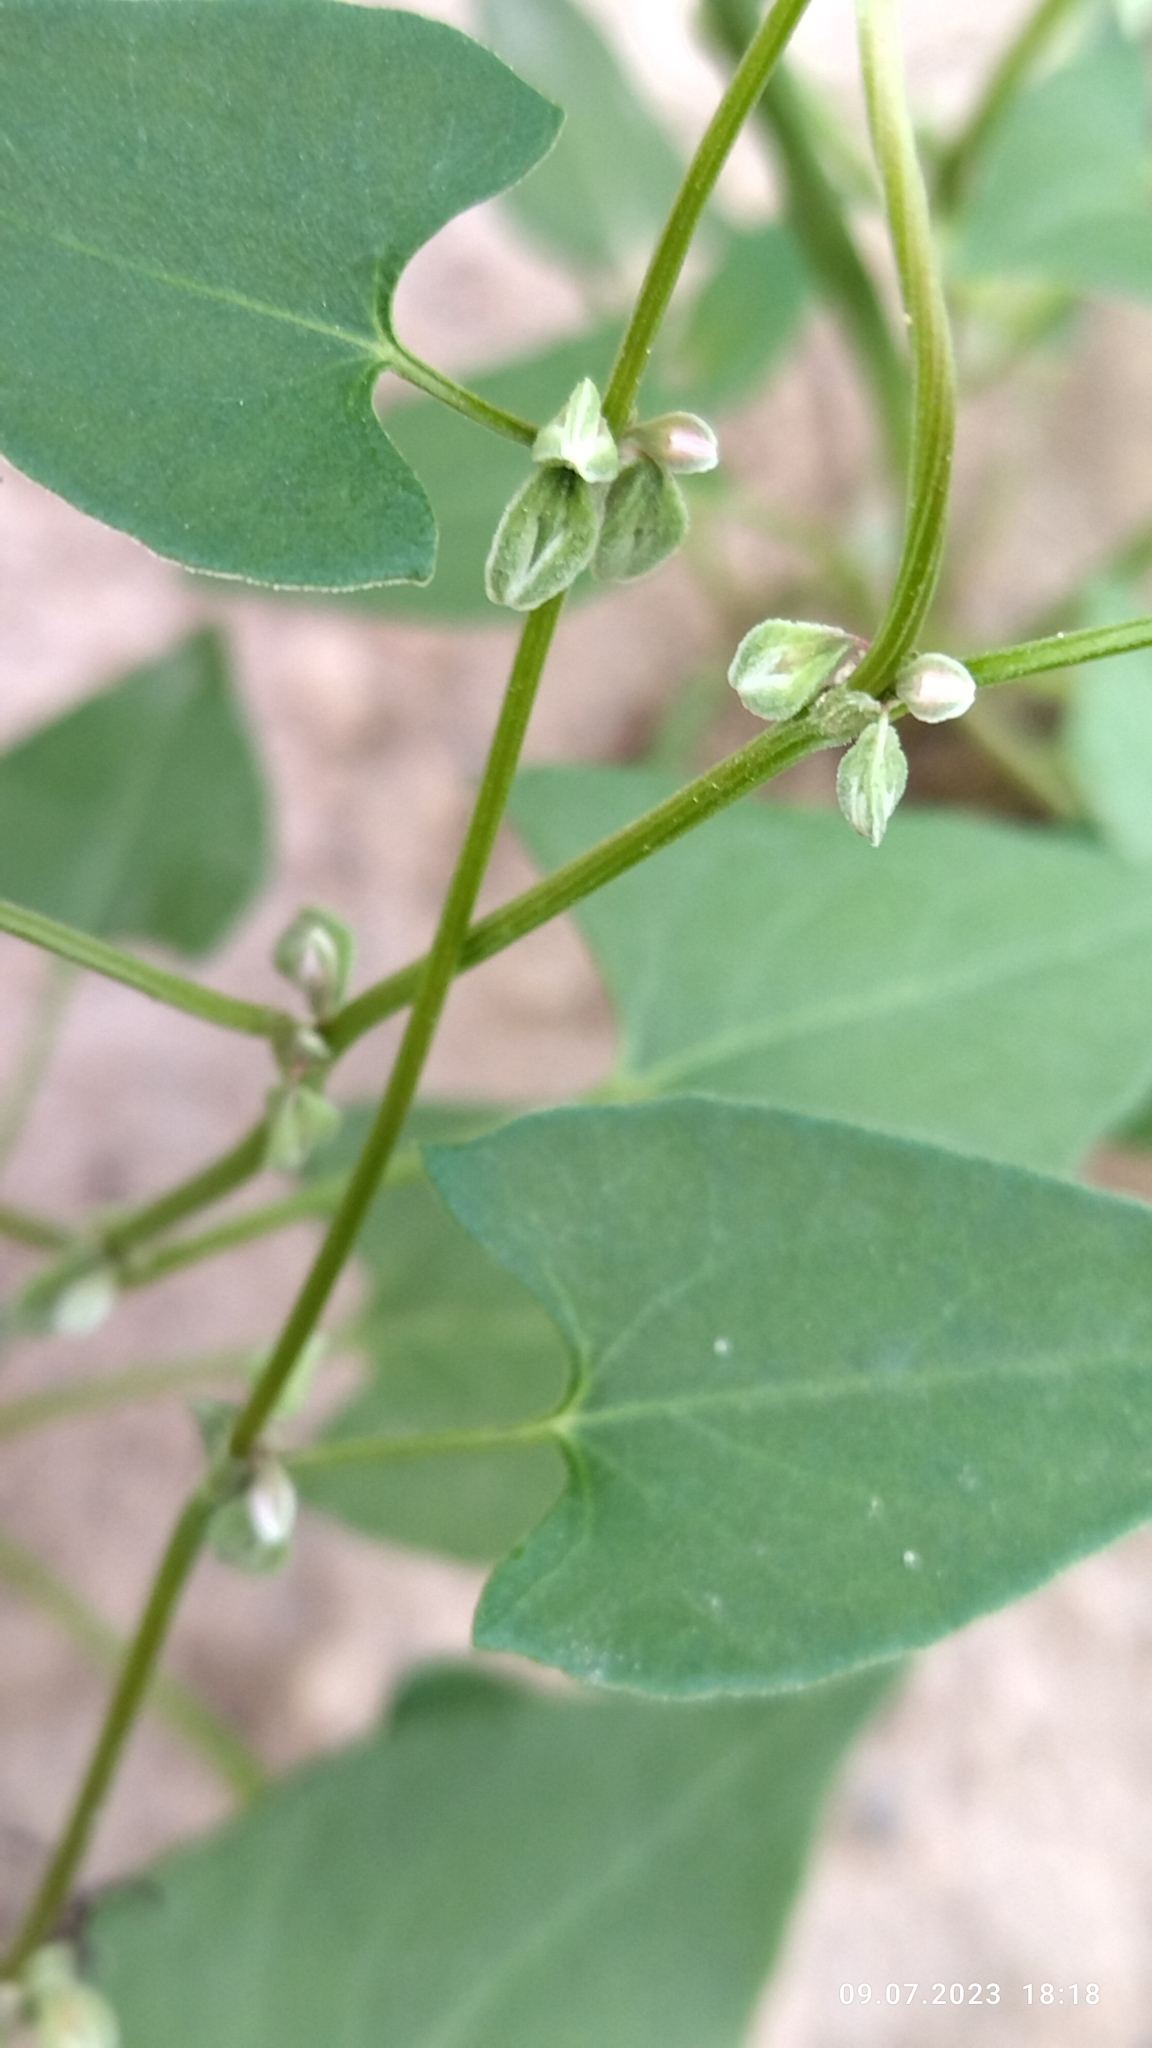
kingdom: Plantae
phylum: Tracheophyta
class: Magnoliopsida
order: Caryophyllales
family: Polygonaceae
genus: Fallopia
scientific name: Fallopia convolvulus
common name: Black bindweed
